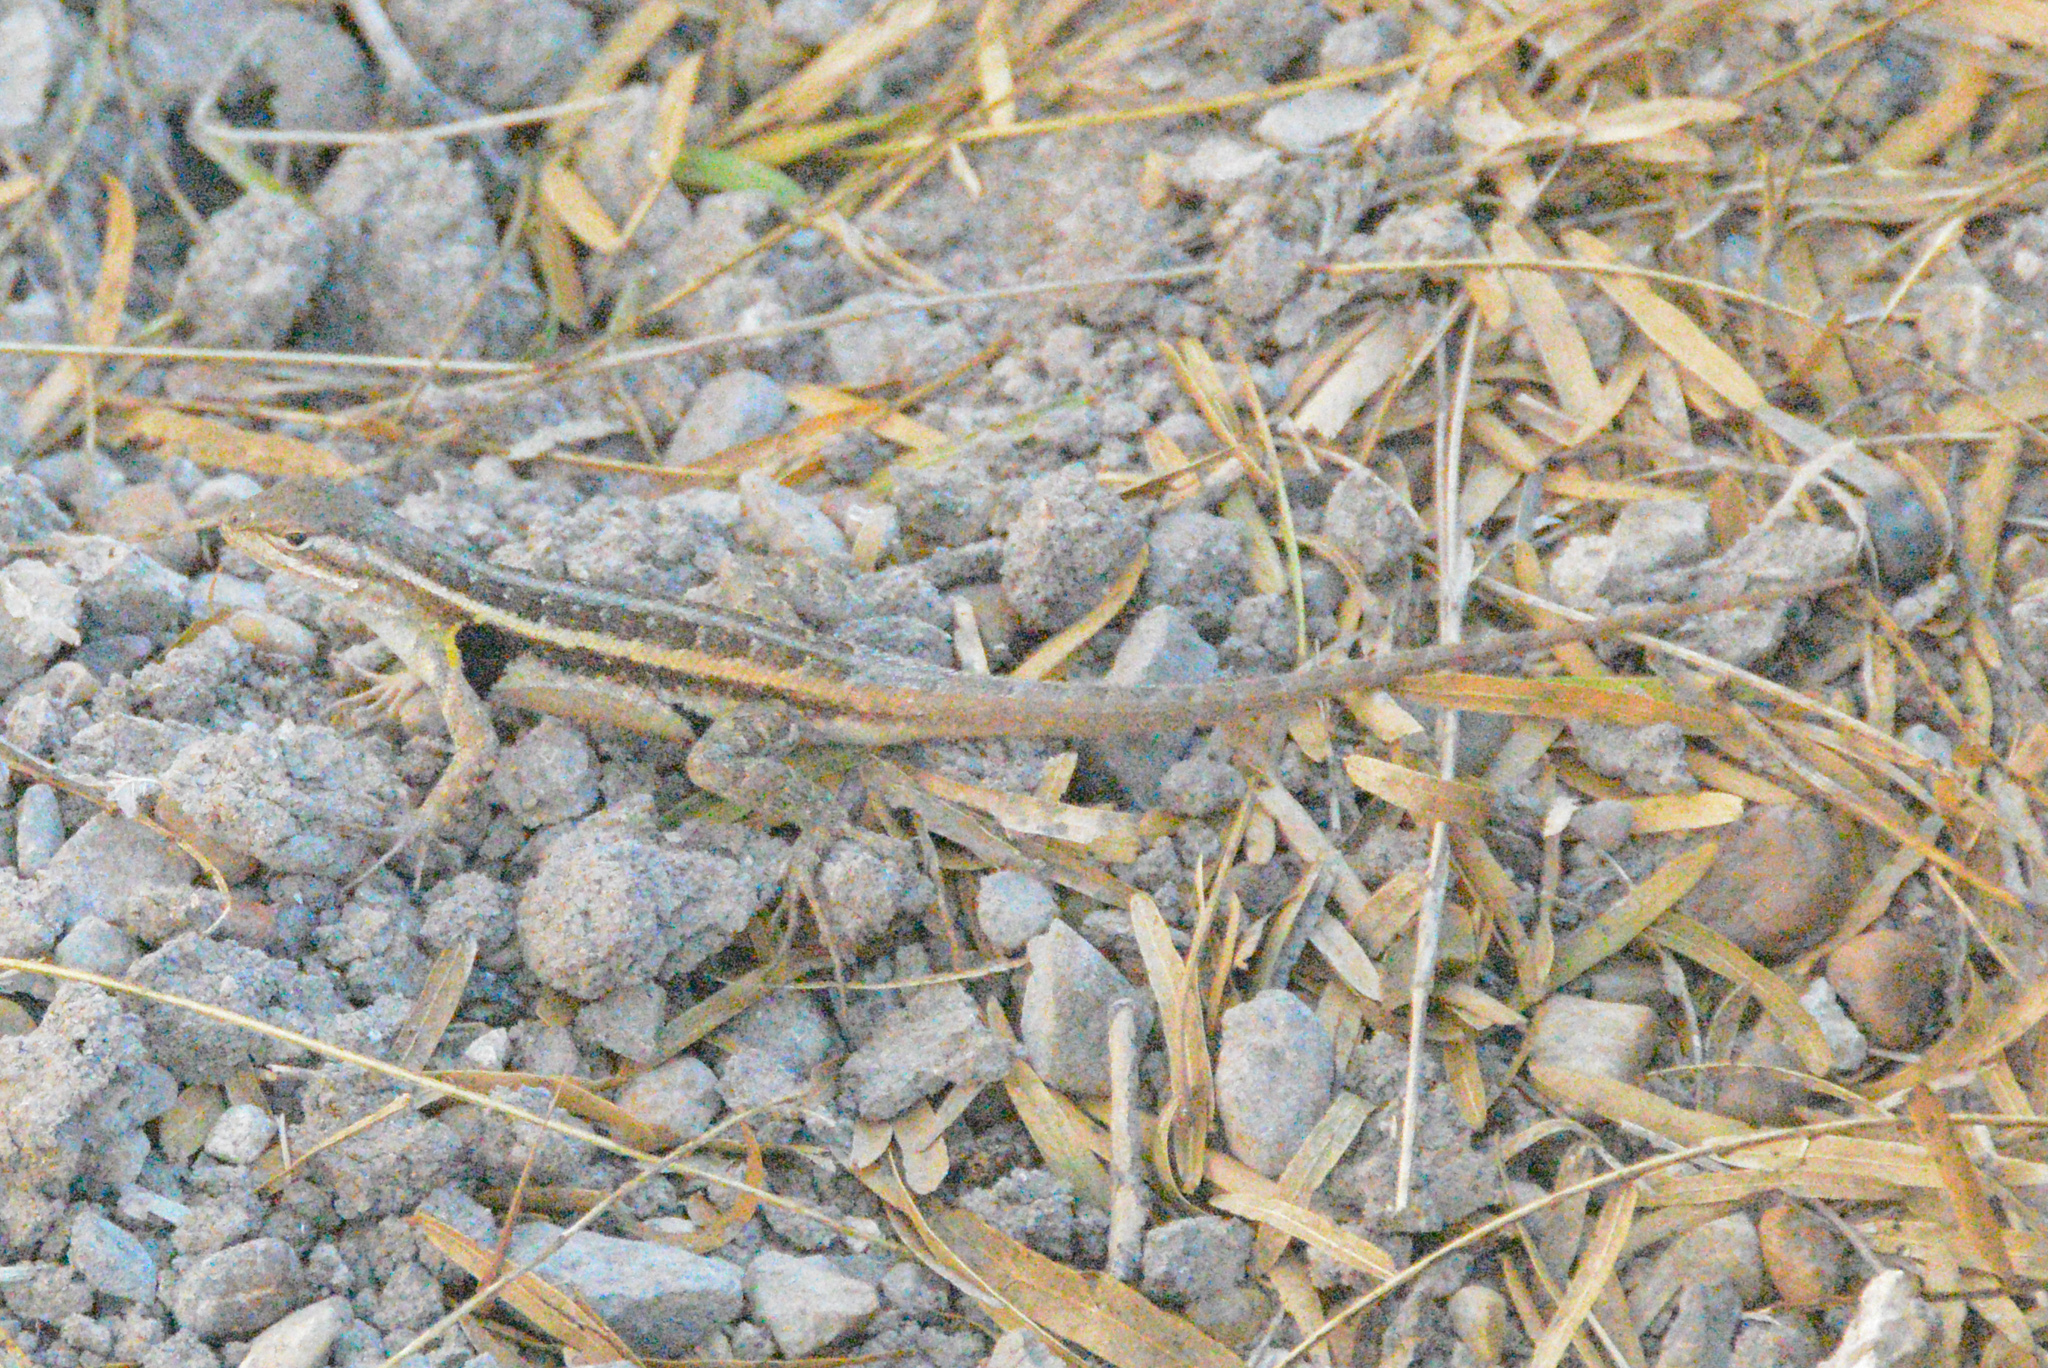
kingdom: Animalia
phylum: Chordata
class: Squamata
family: Phrynosomatidae
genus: Sceloporus
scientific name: Sceloporus variabilis
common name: Rosebelly lizard
